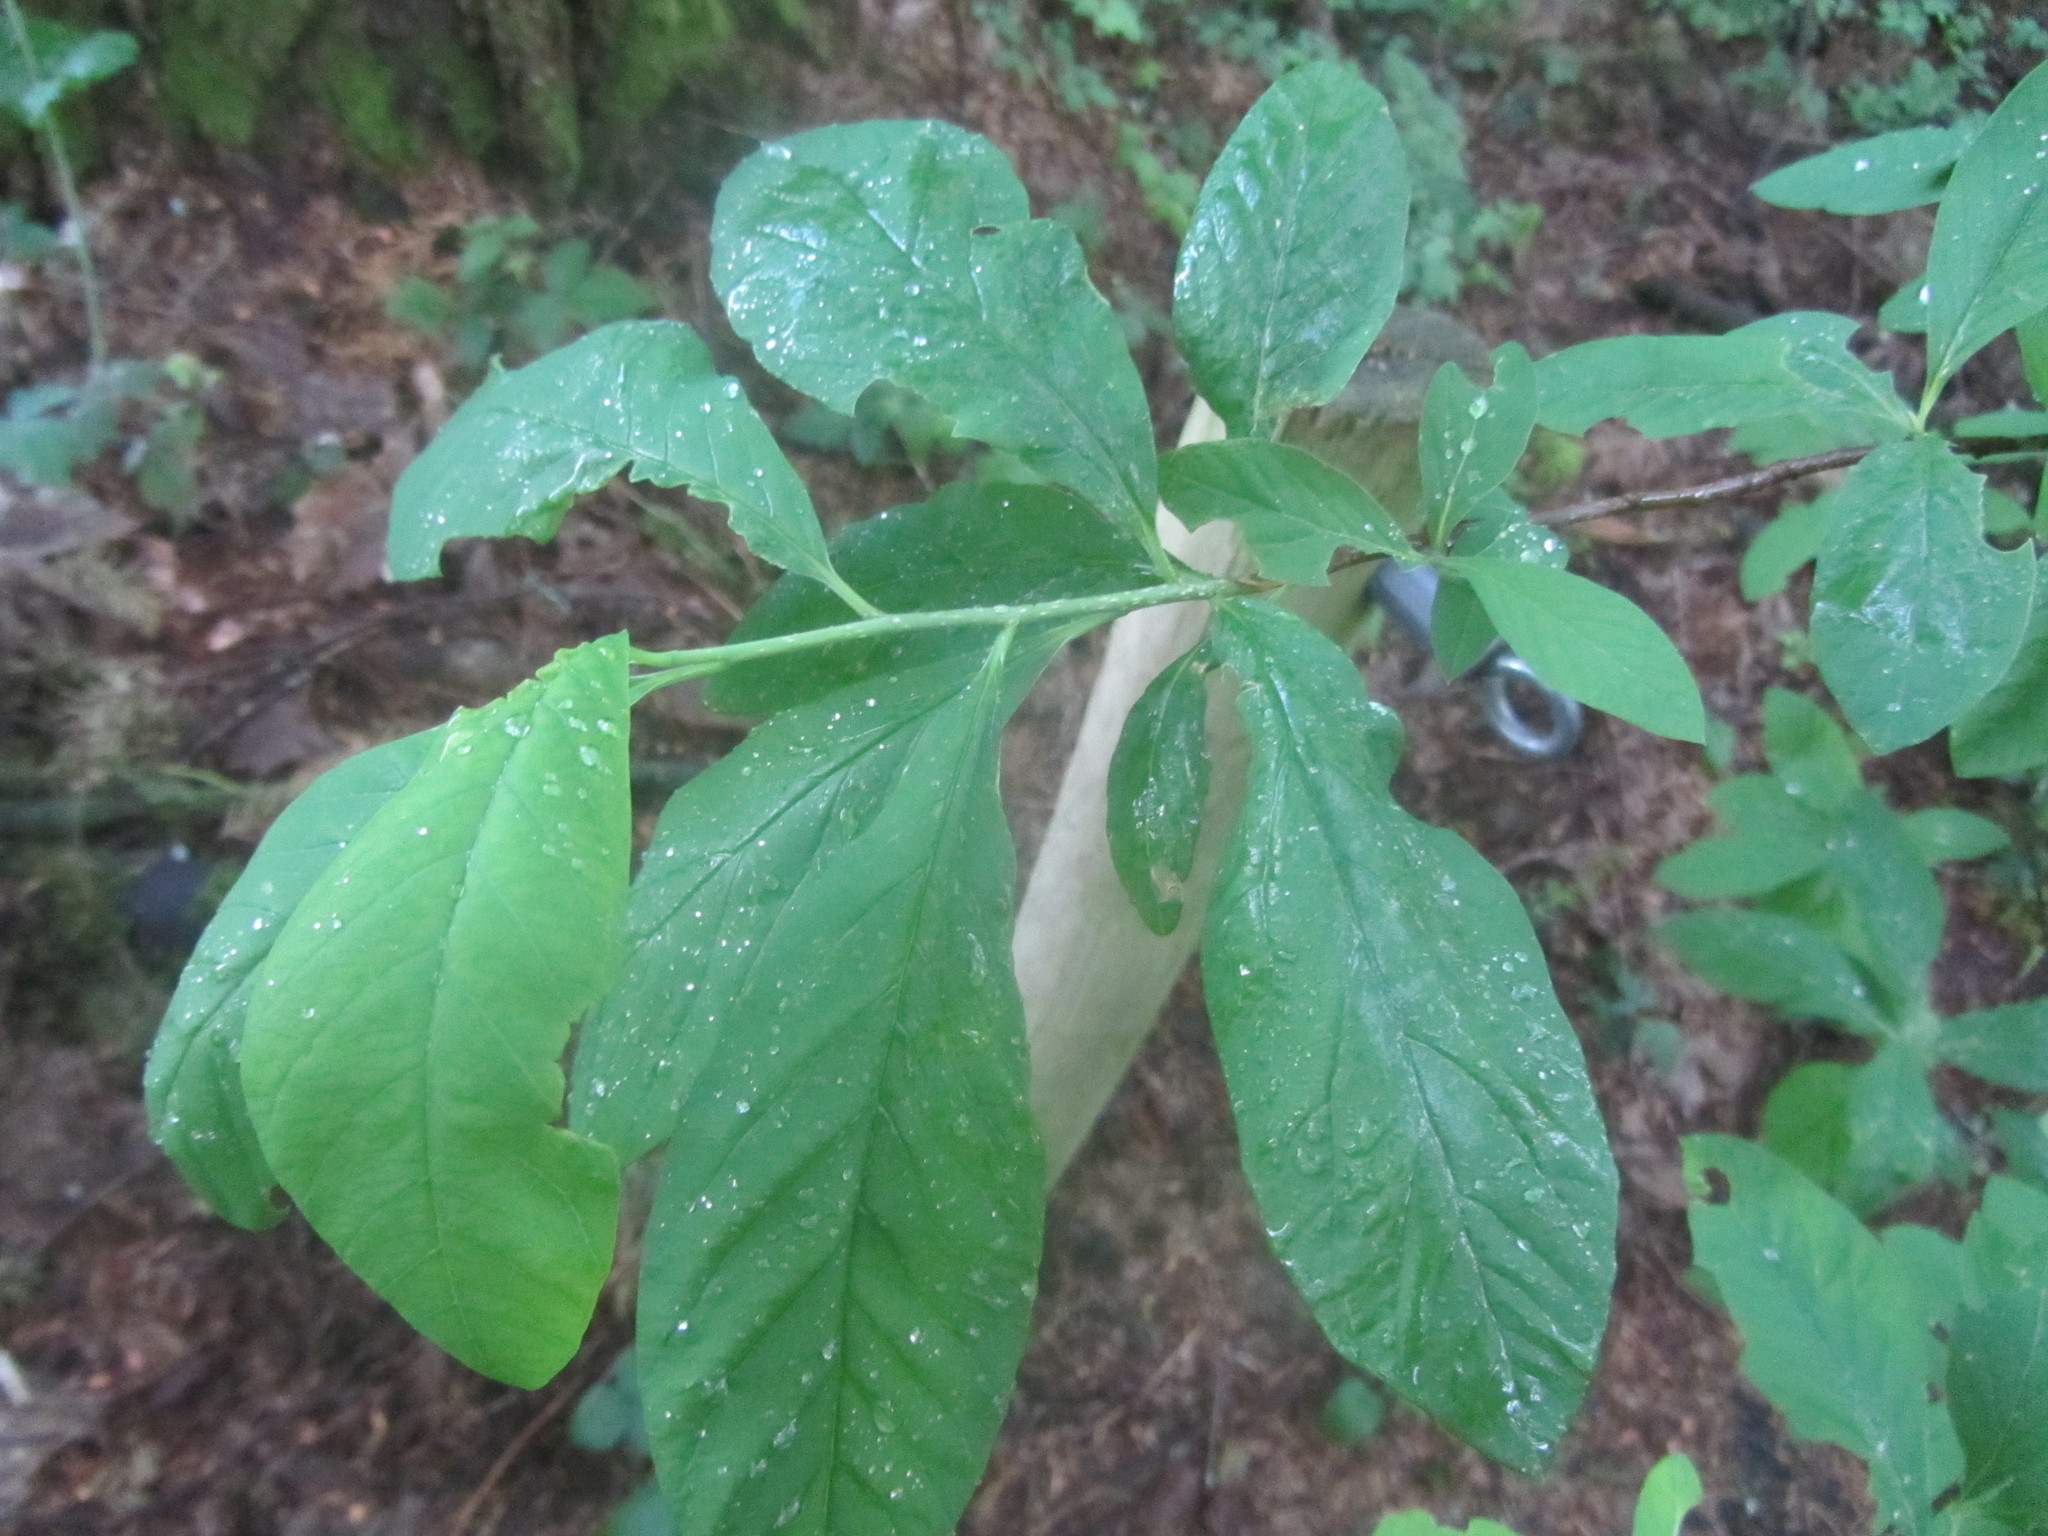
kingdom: Plantae
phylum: Tracheophyta
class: Magnoliopsida
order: Rosales
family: Rosaceae
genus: Oemleria
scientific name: Oemleria cerasiformis
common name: Osoberry
